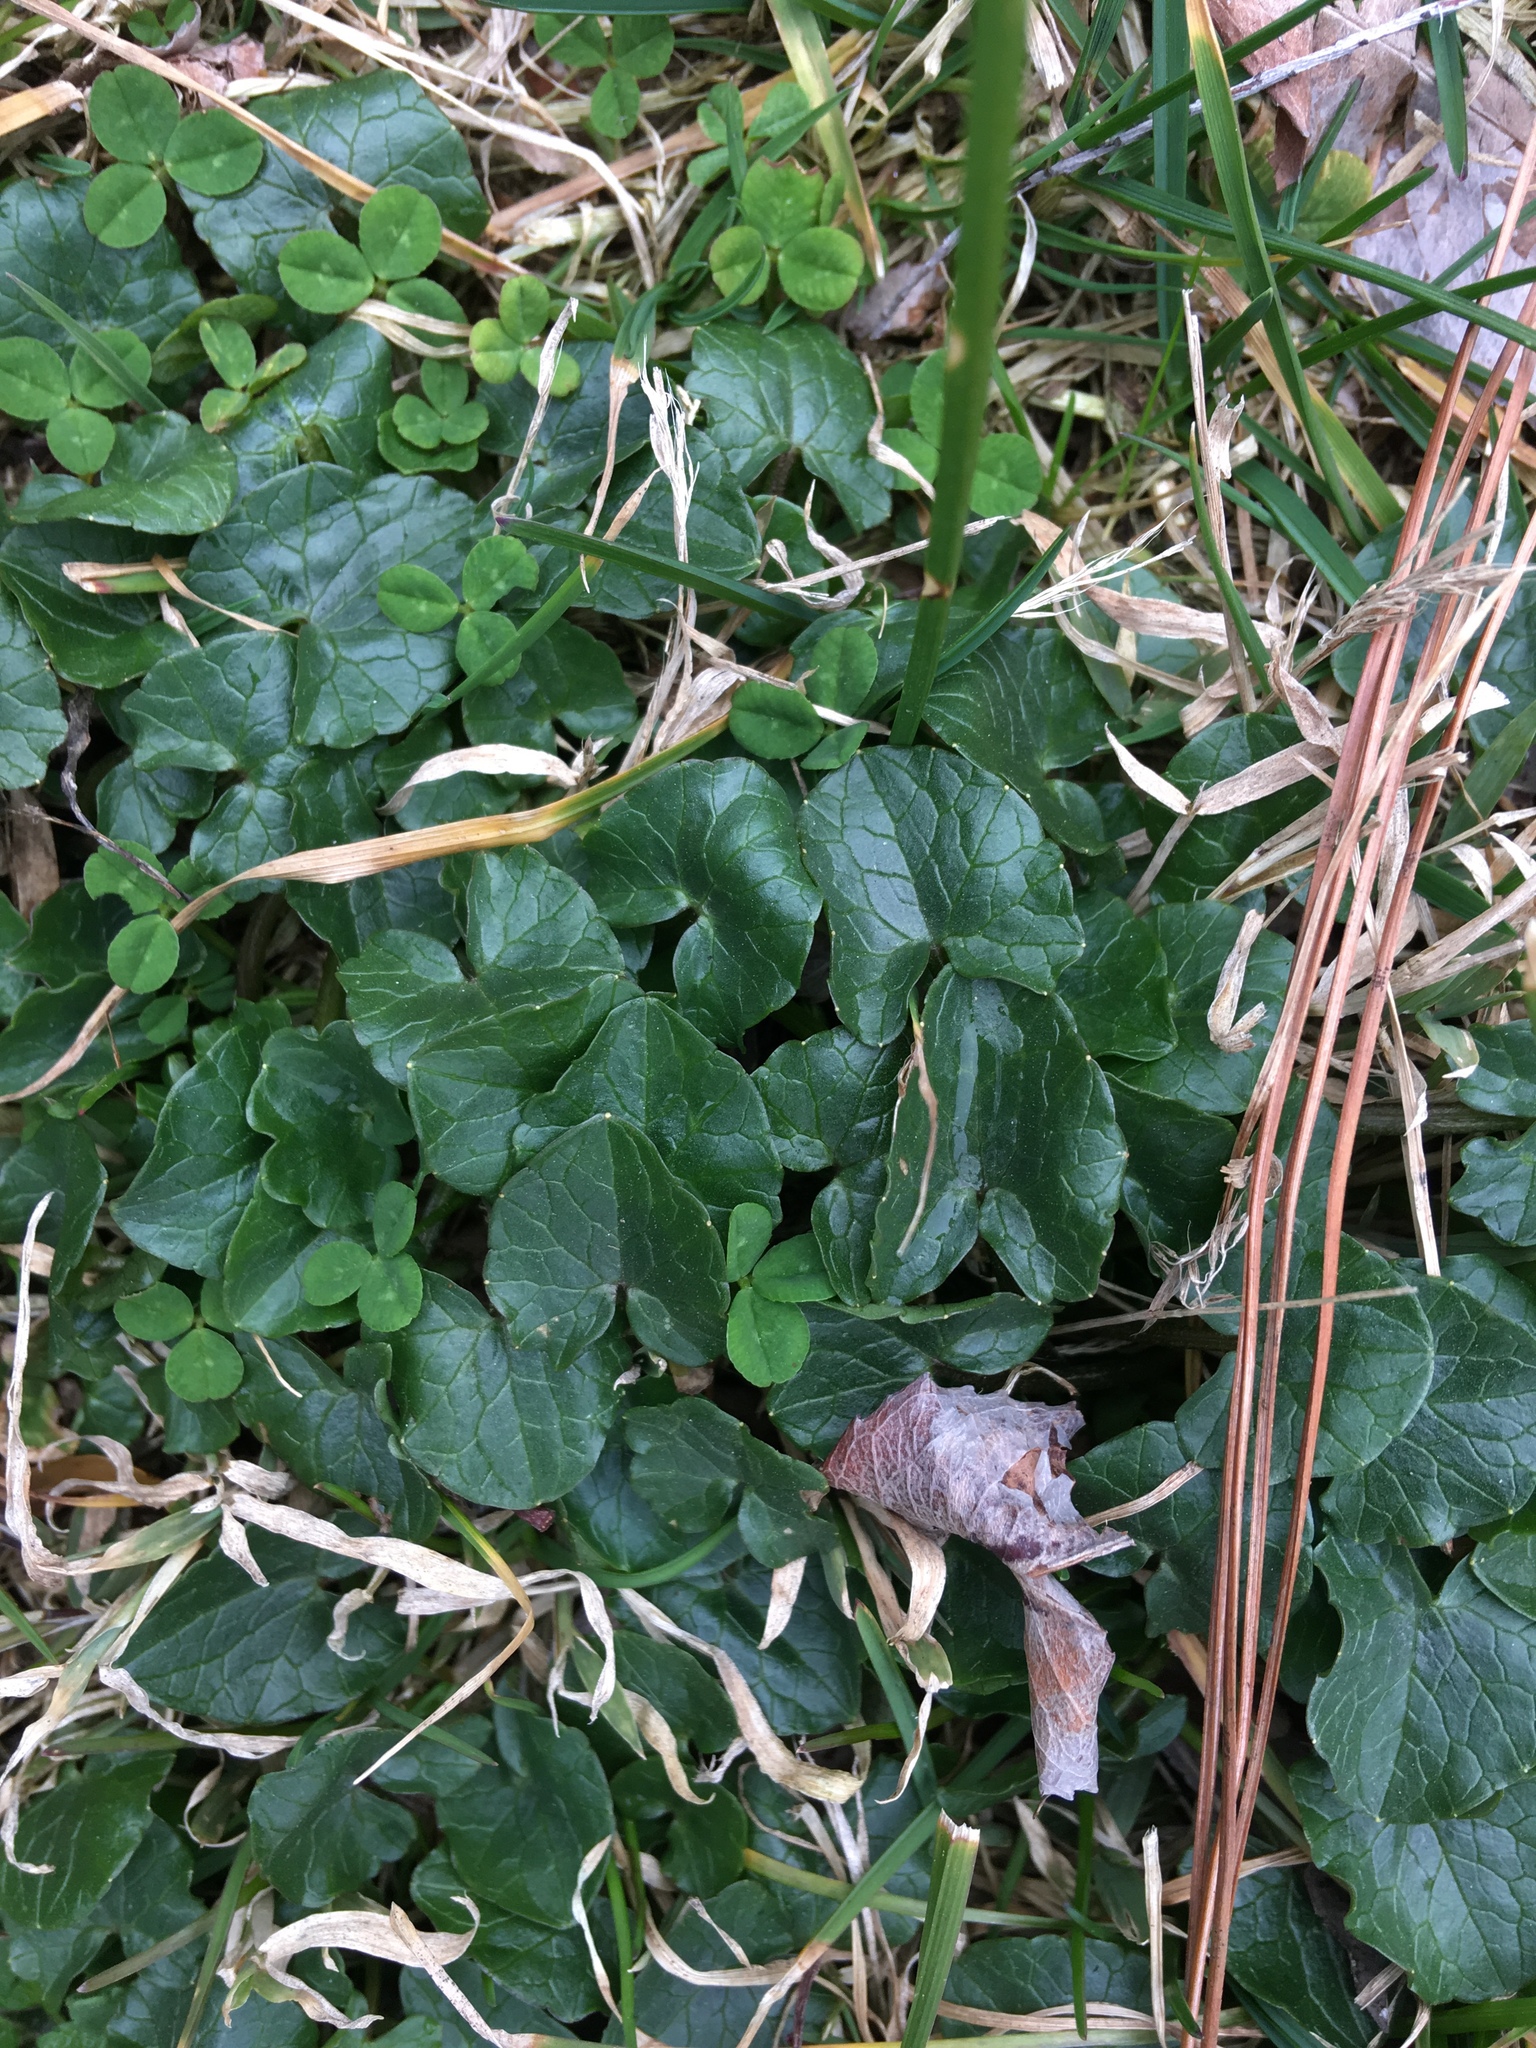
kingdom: Plantae
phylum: Tracheophyta
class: Magnoliopsida
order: Ranunculales
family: Ranunculaceae
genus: Ficaria
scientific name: Ficaria verna
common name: Lesser celandine
